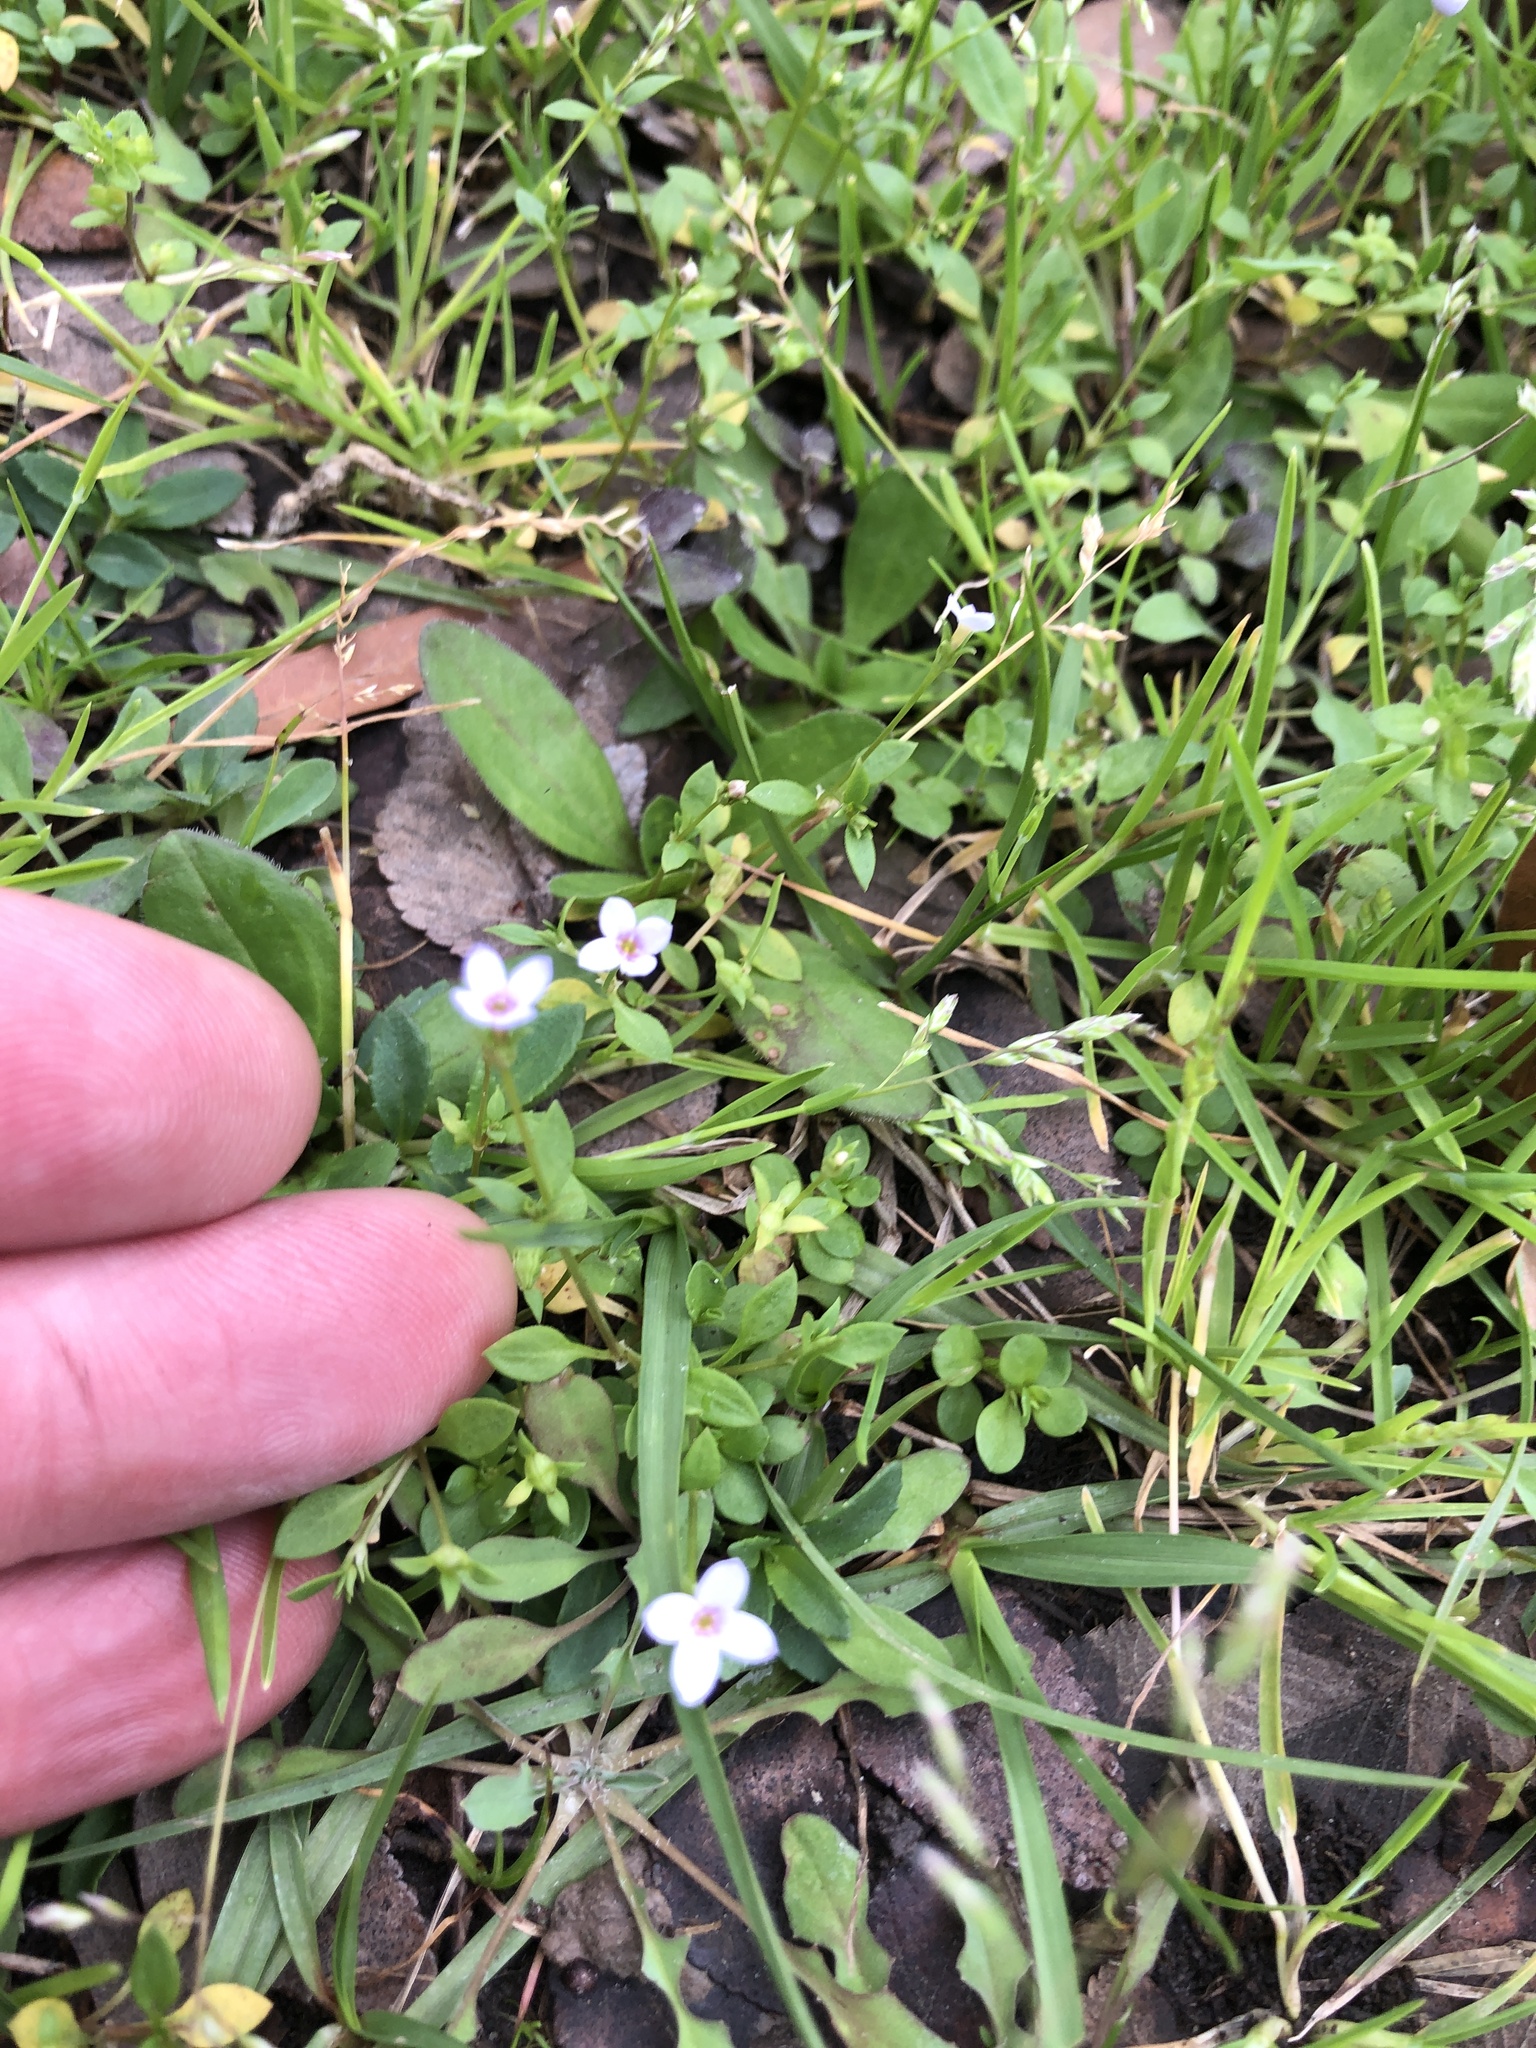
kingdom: Plantae
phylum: Tracheophyta
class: Magnoliopsida
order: Gentianales
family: Rubiaceae
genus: Houstonia
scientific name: Houstonia pusilla
